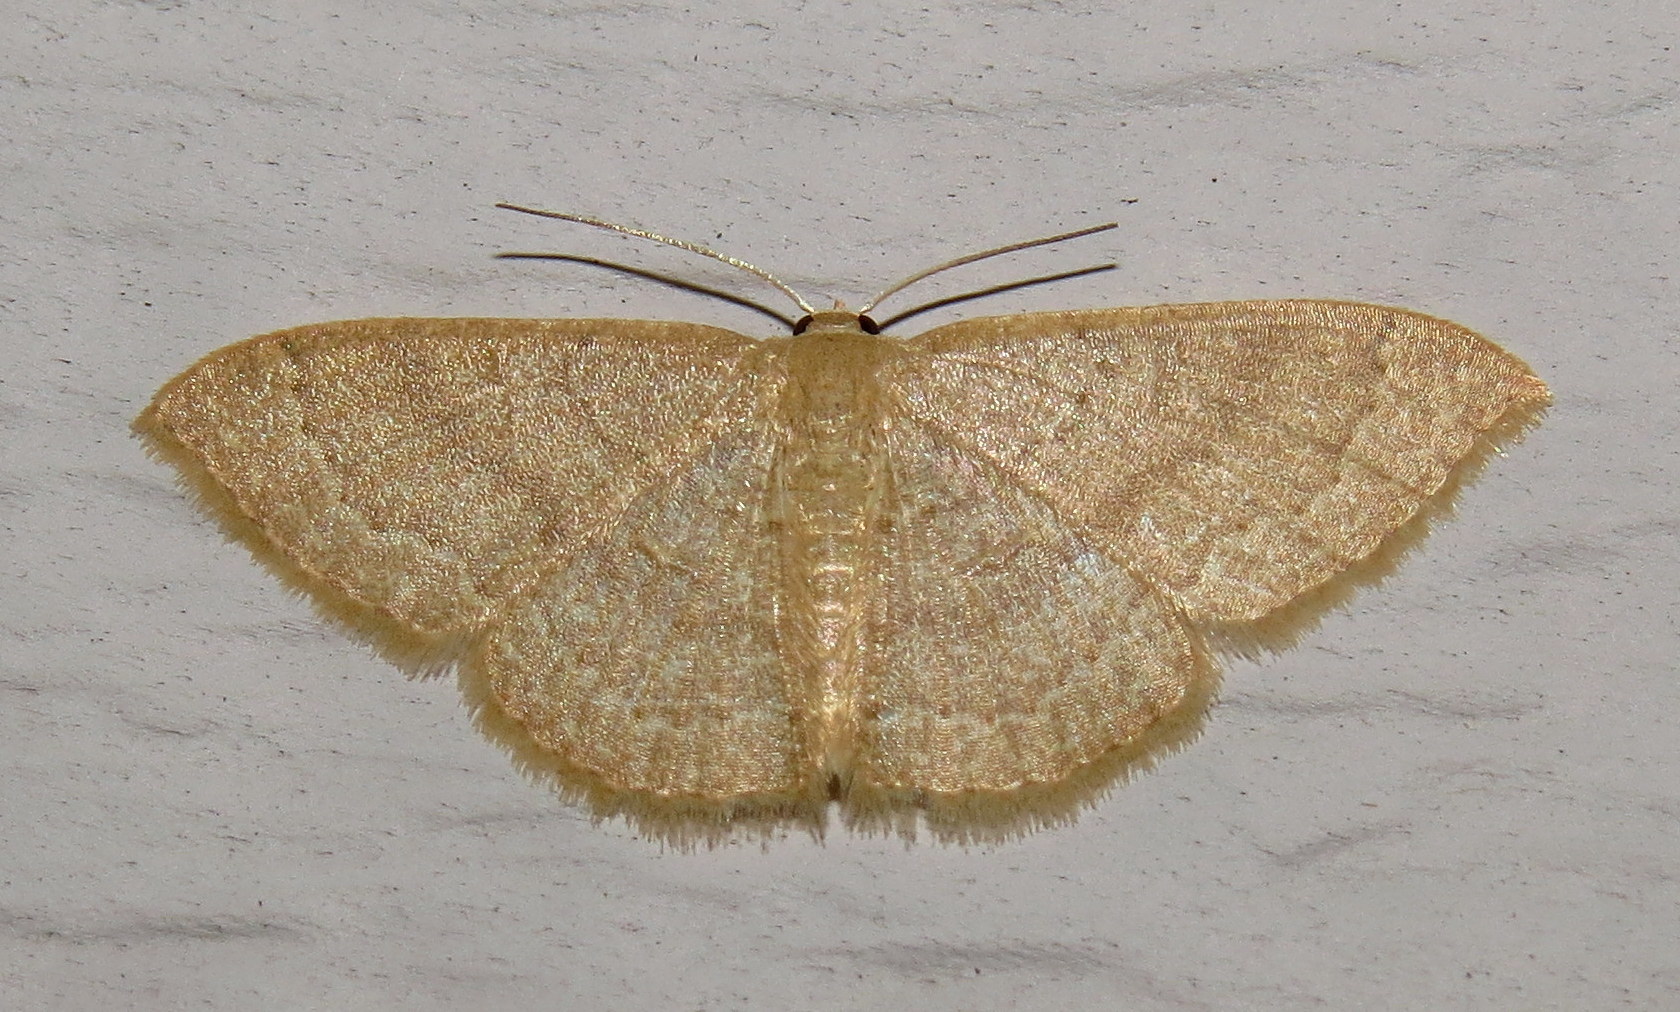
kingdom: Animalia
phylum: Arthropoda
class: Insecta
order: Lepidoptera
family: Geometridae
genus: Pleuroprucha
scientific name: Pleuroprucha insulsaria
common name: Common tan wave
